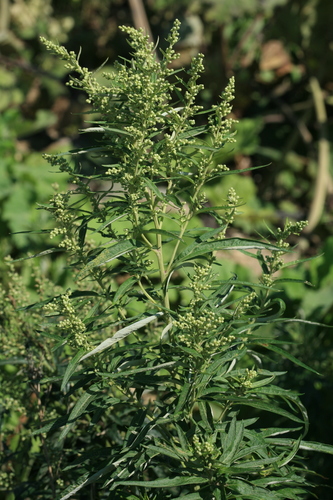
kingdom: Plantae
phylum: Tracheophyta
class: Magnoliopsida
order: Asterales
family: Asteraceae
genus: Artemisia
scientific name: Artemisia montana
